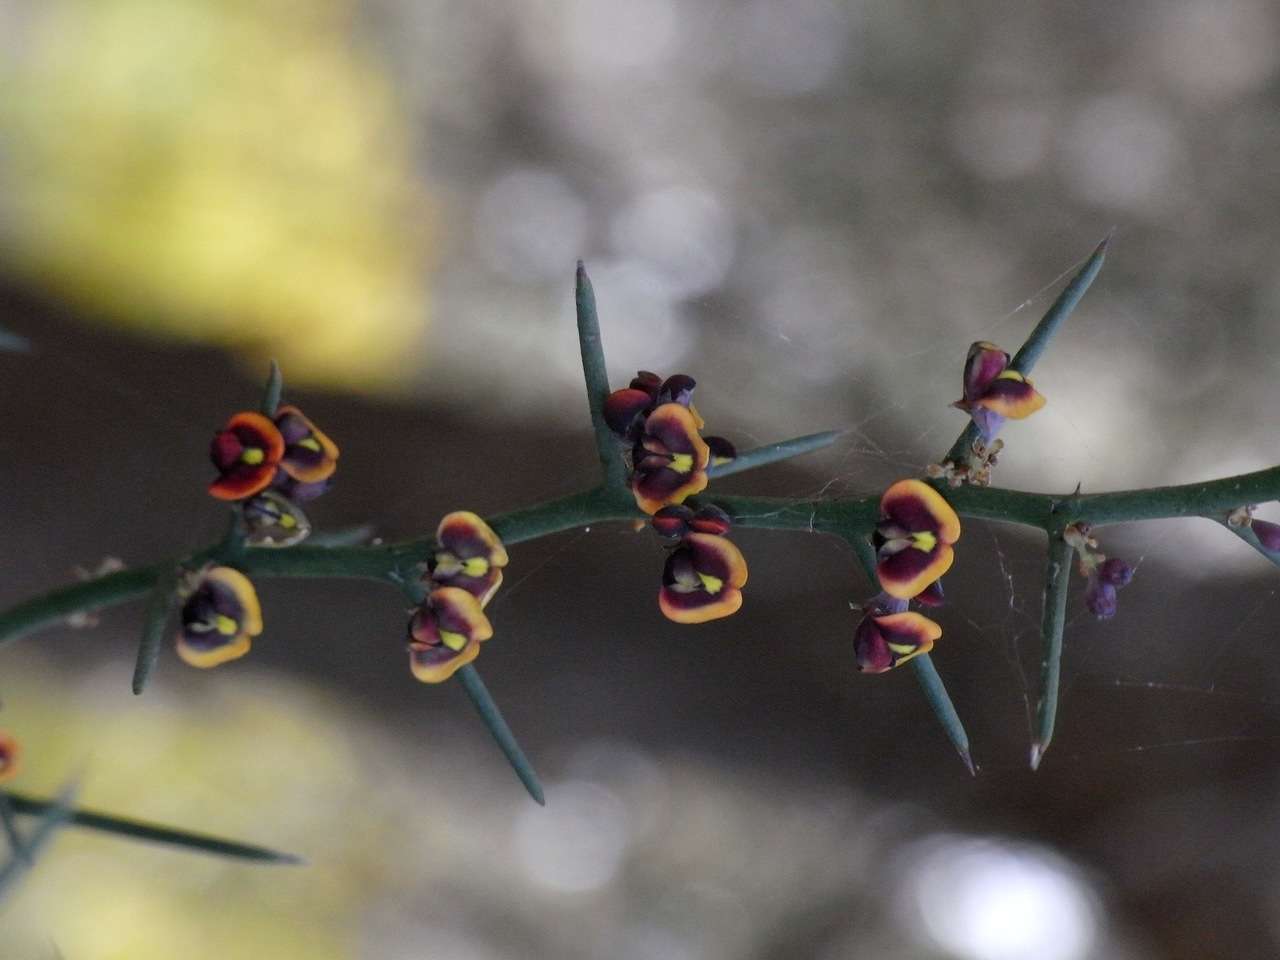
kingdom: Plantae
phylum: Tracheophyta
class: Magnoliopsida
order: Fabales
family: Fabaceae
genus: Daviesia
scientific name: Daviesia schwarzenegger
